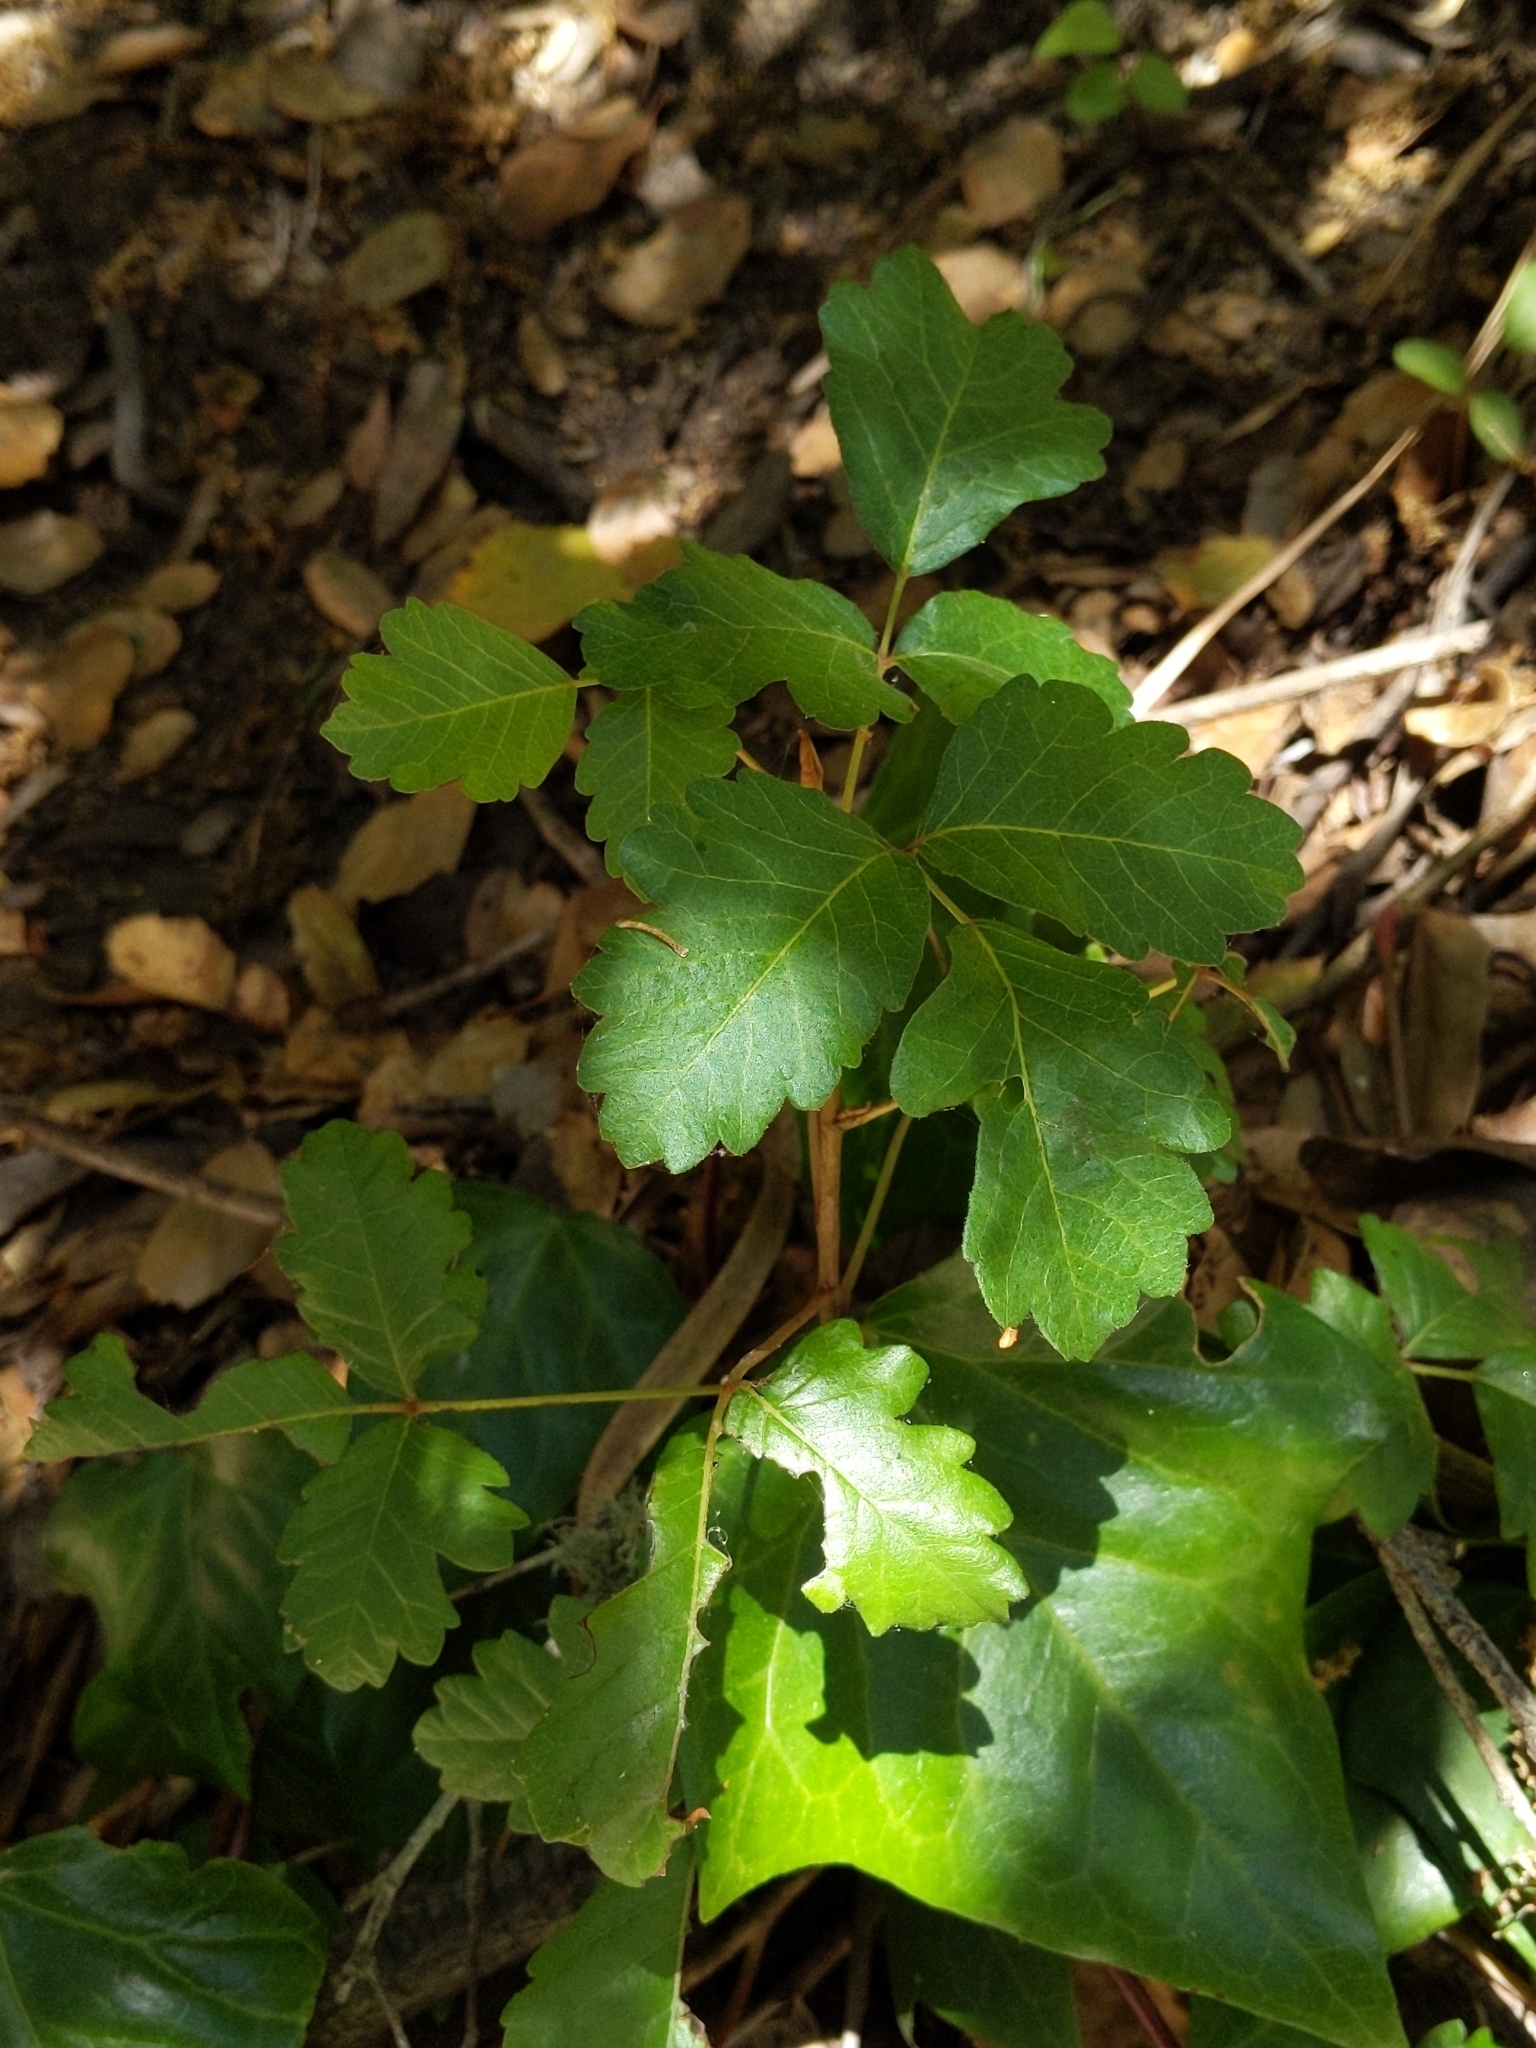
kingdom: Plantae
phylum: Tracheophyta
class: Magnoliopsida
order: Sapindales
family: Anacardiaceae
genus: Toxicodendron
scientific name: Toxicodendron diversilobum
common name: Pacific poison-oak
